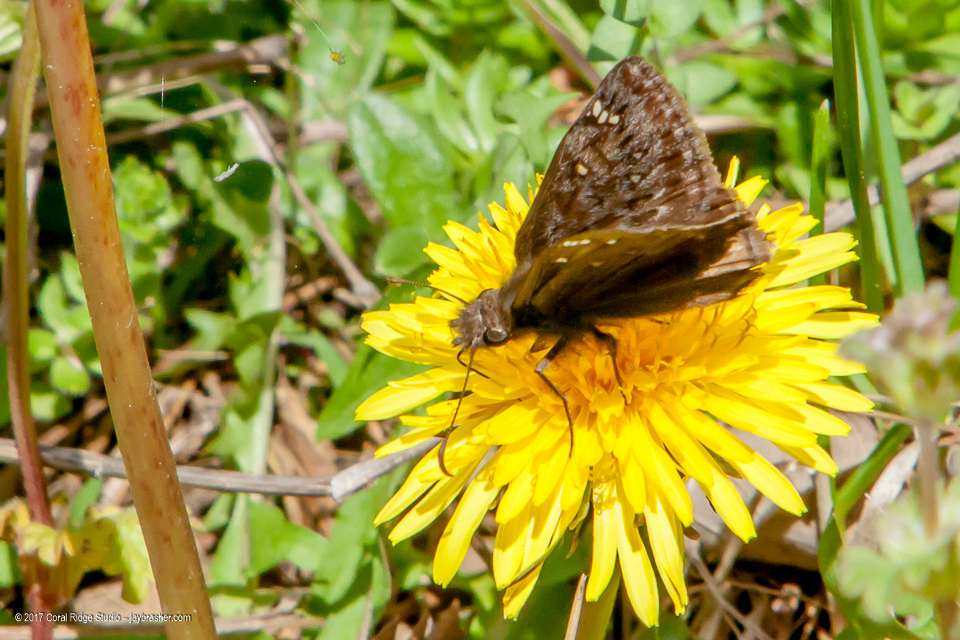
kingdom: Animalia
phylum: Arthropoda
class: Insecta
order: Lepidoptera
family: Hesperiidae
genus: Erynnis
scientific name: Erynnis juvenalis
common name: Juvenal's duskywing
